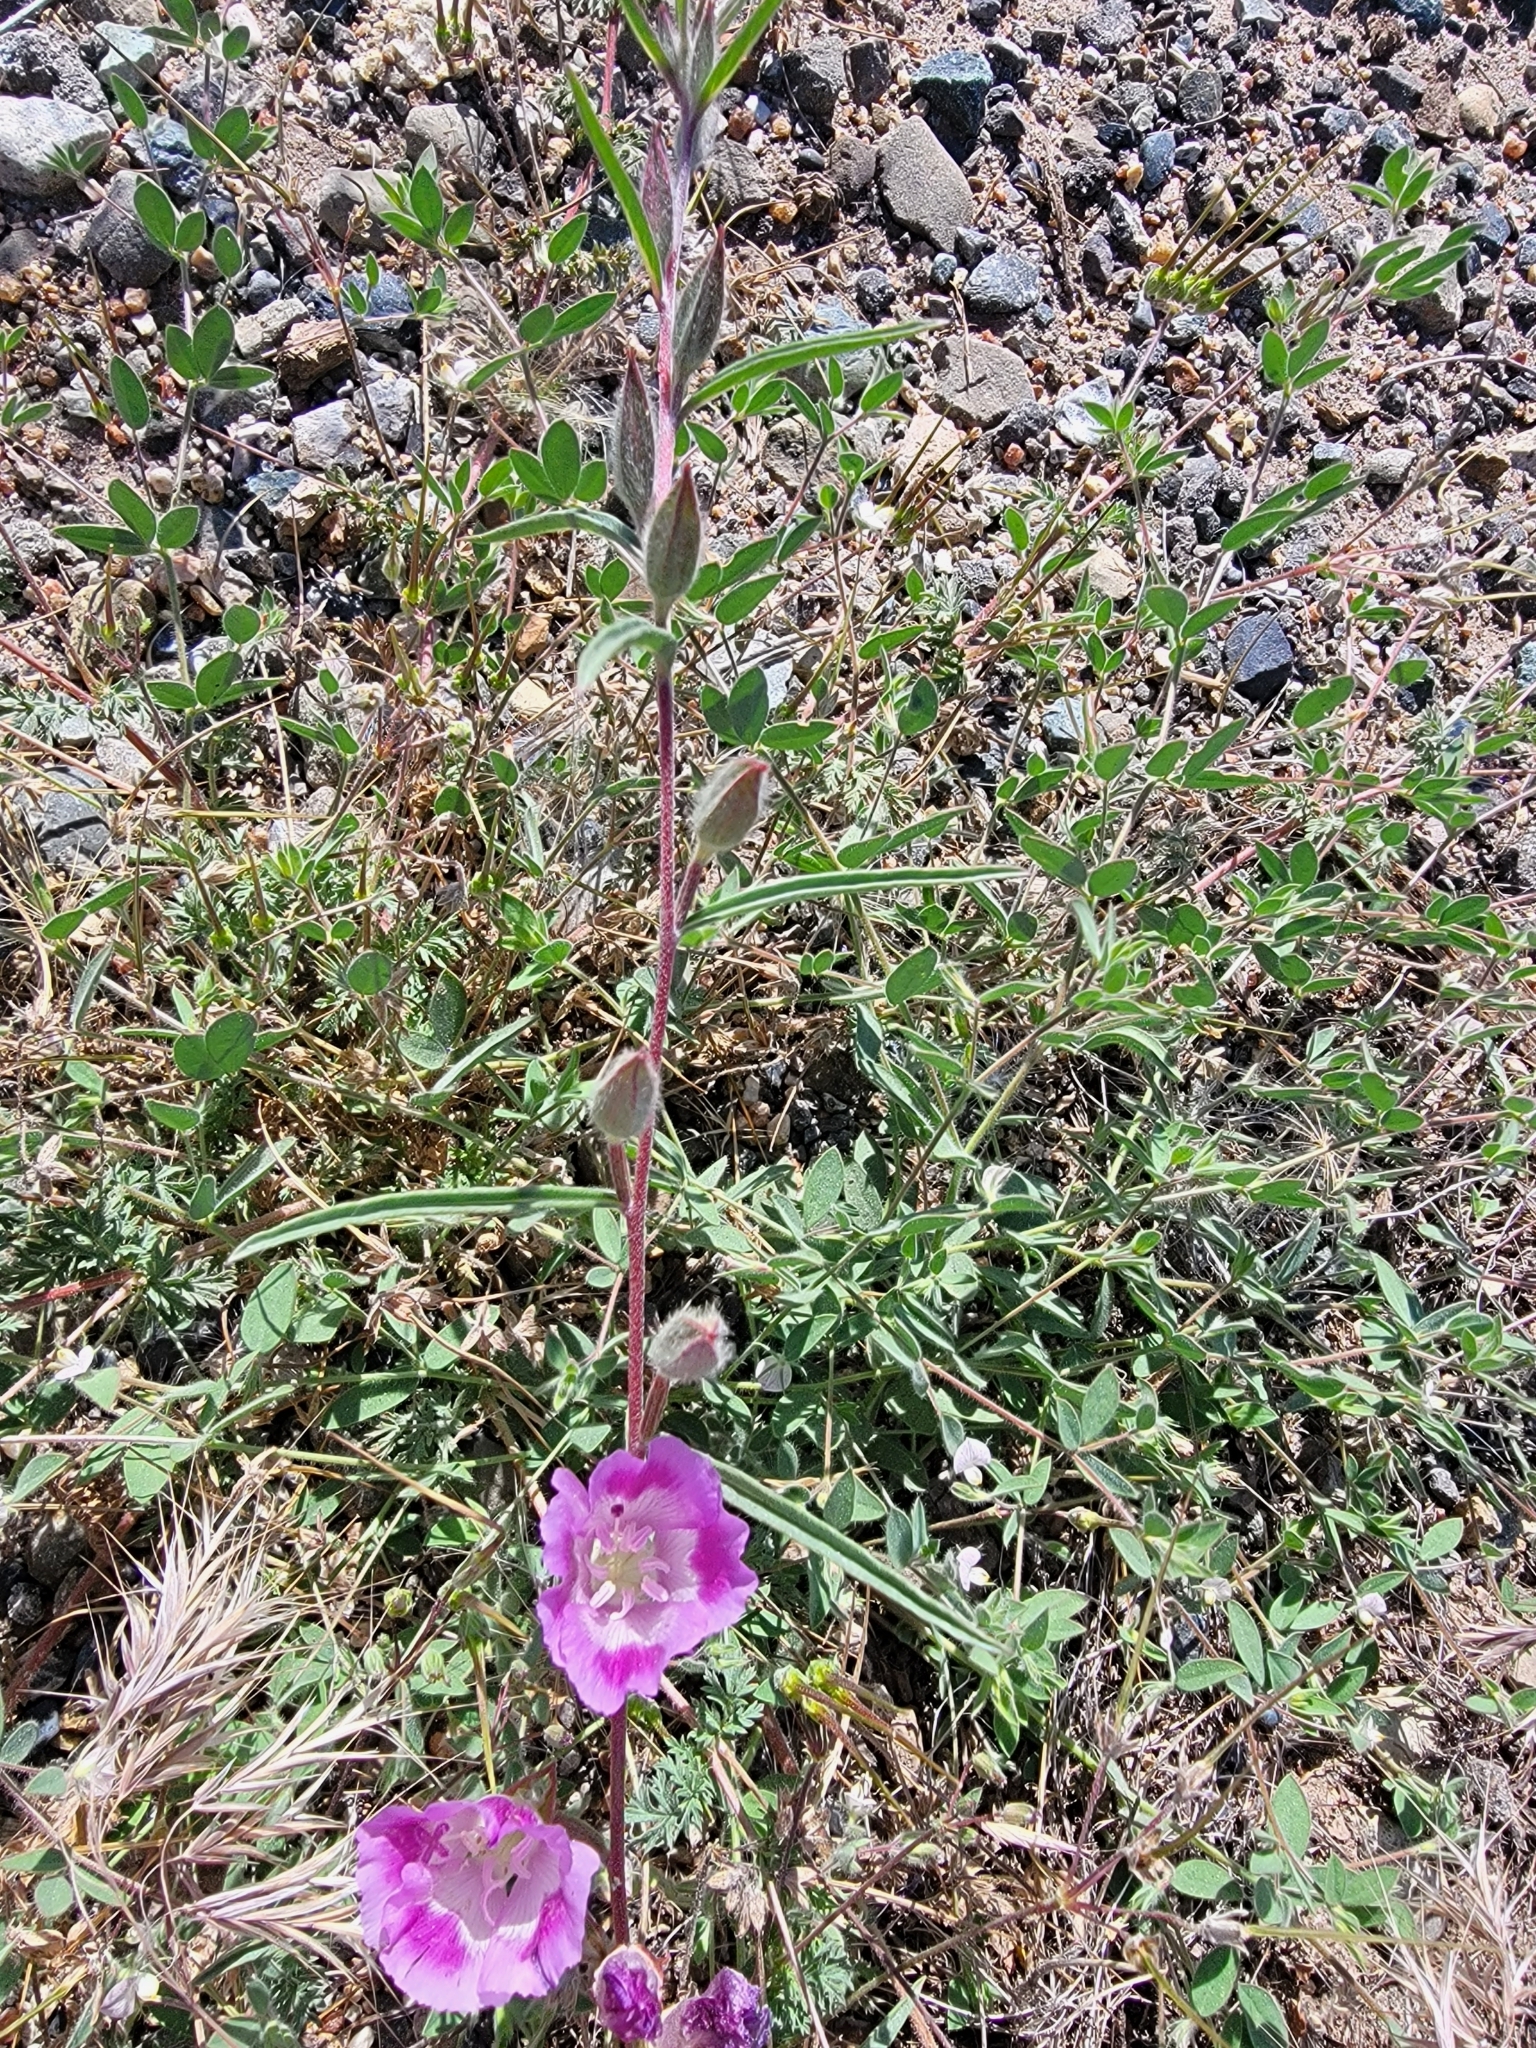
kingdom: Plantae
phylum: Tracheophyta
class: Magnoliopsida
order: Myrtales
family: Onagraceae
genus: Clarkia
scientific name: Clarkia williamsonii
